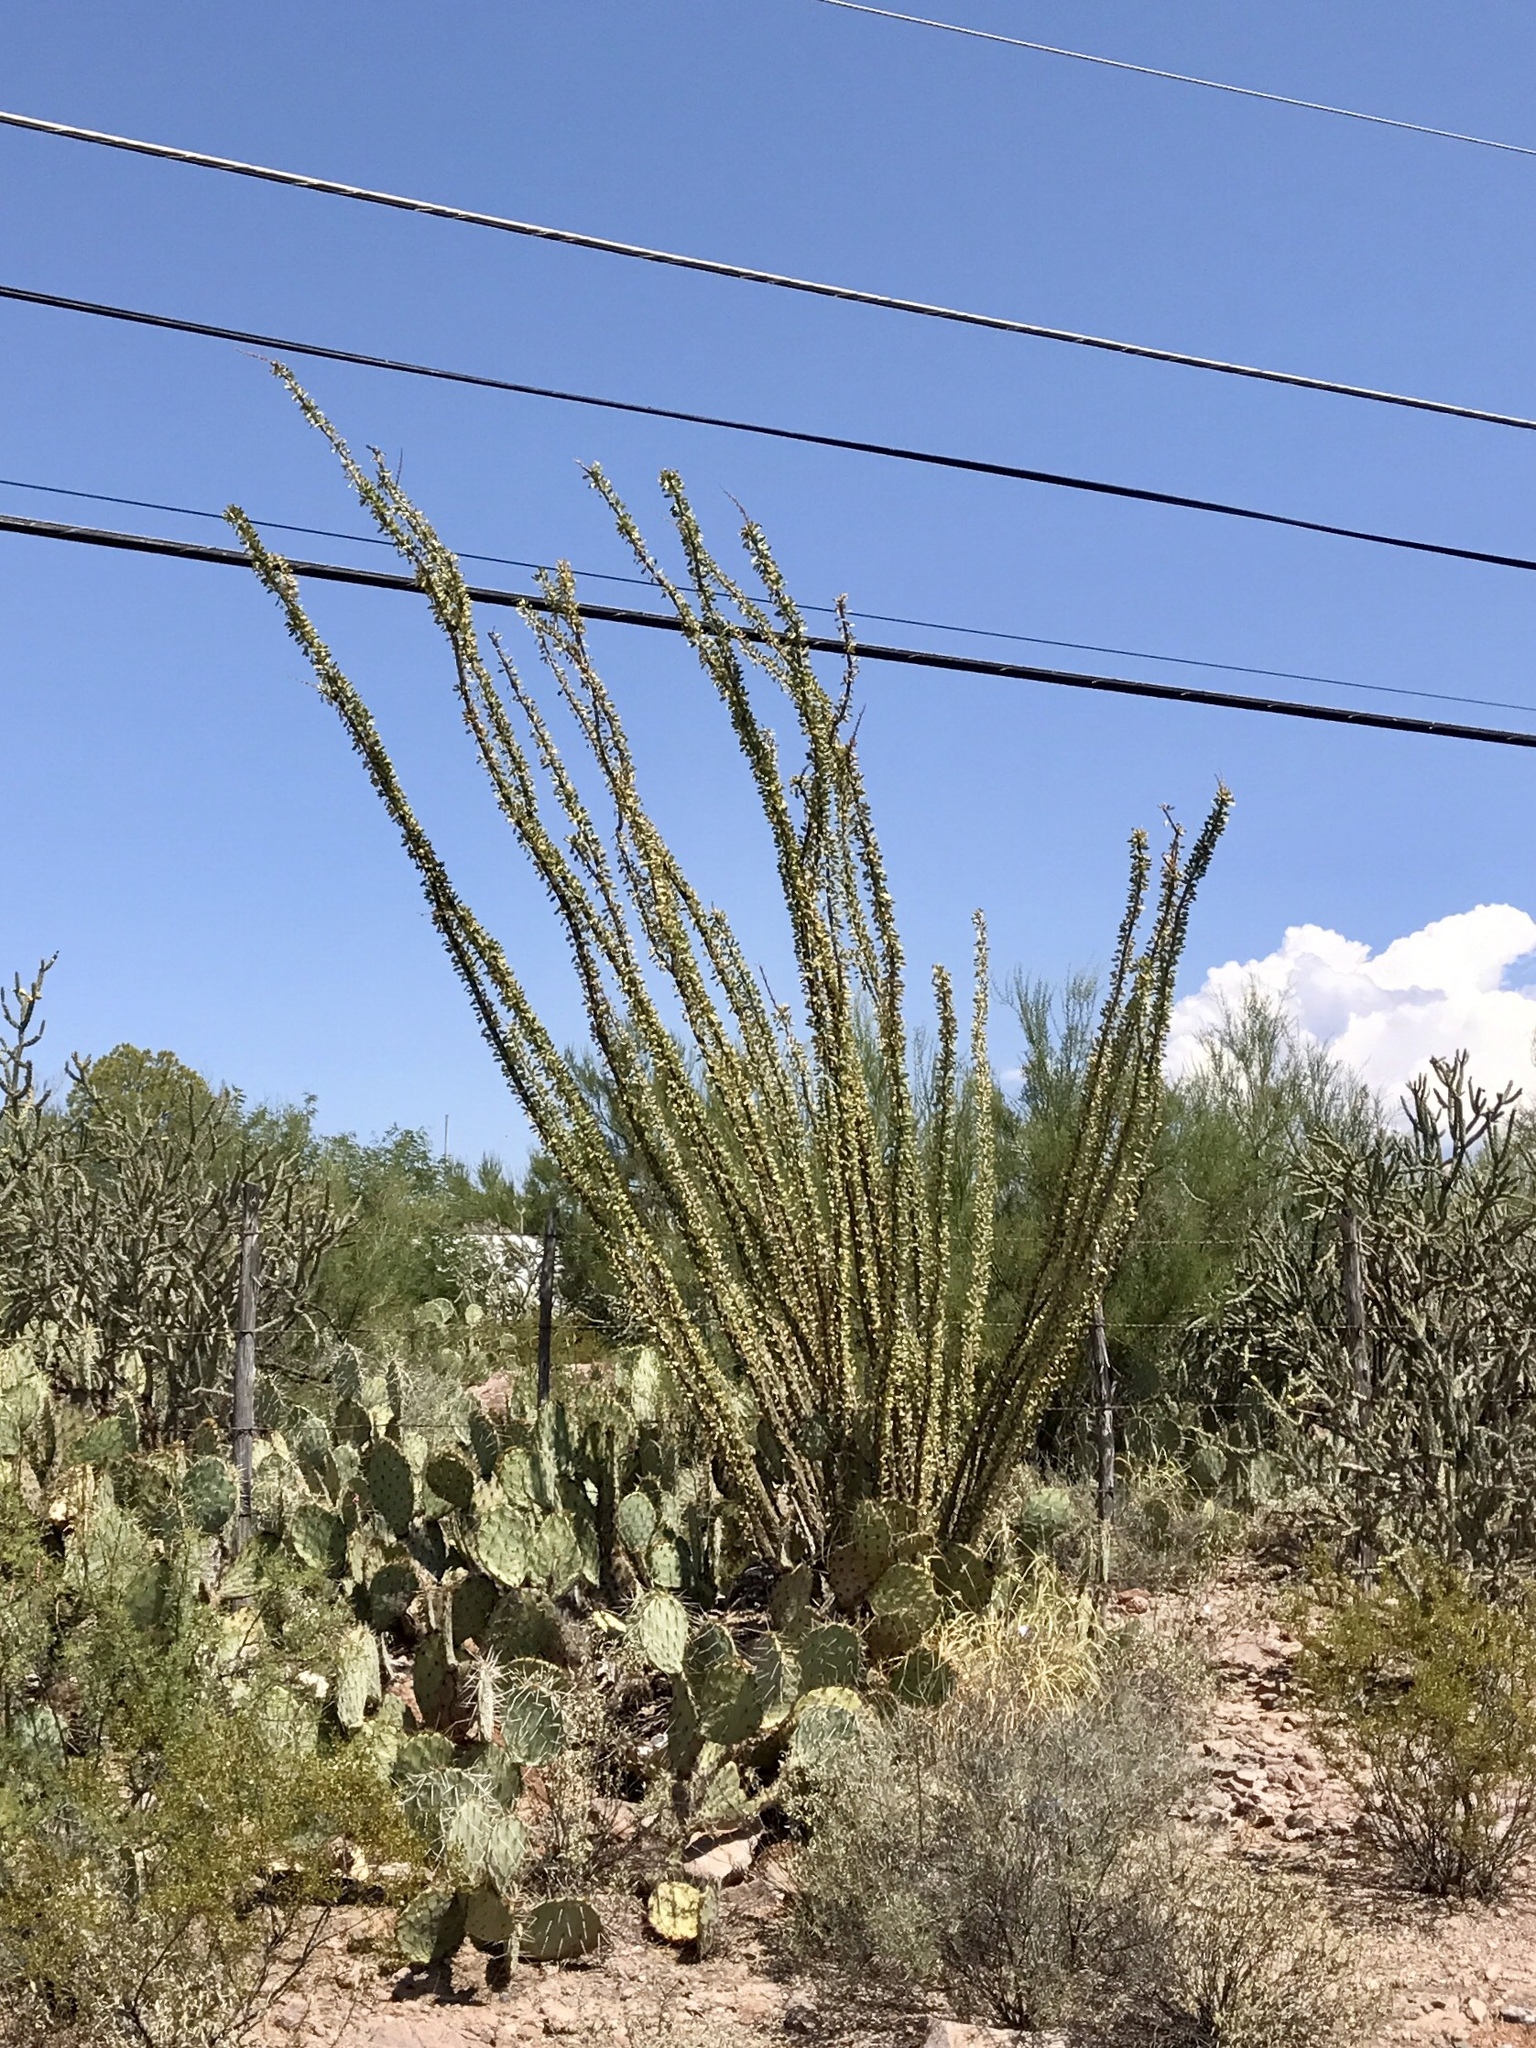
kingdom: Plantae
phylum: Tracheophyta
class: Magnoliopsida
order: Ericales
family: Fouquieriaceae
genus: Fouquieria
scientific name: Fouquieria splendens
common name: Vine-cactus
